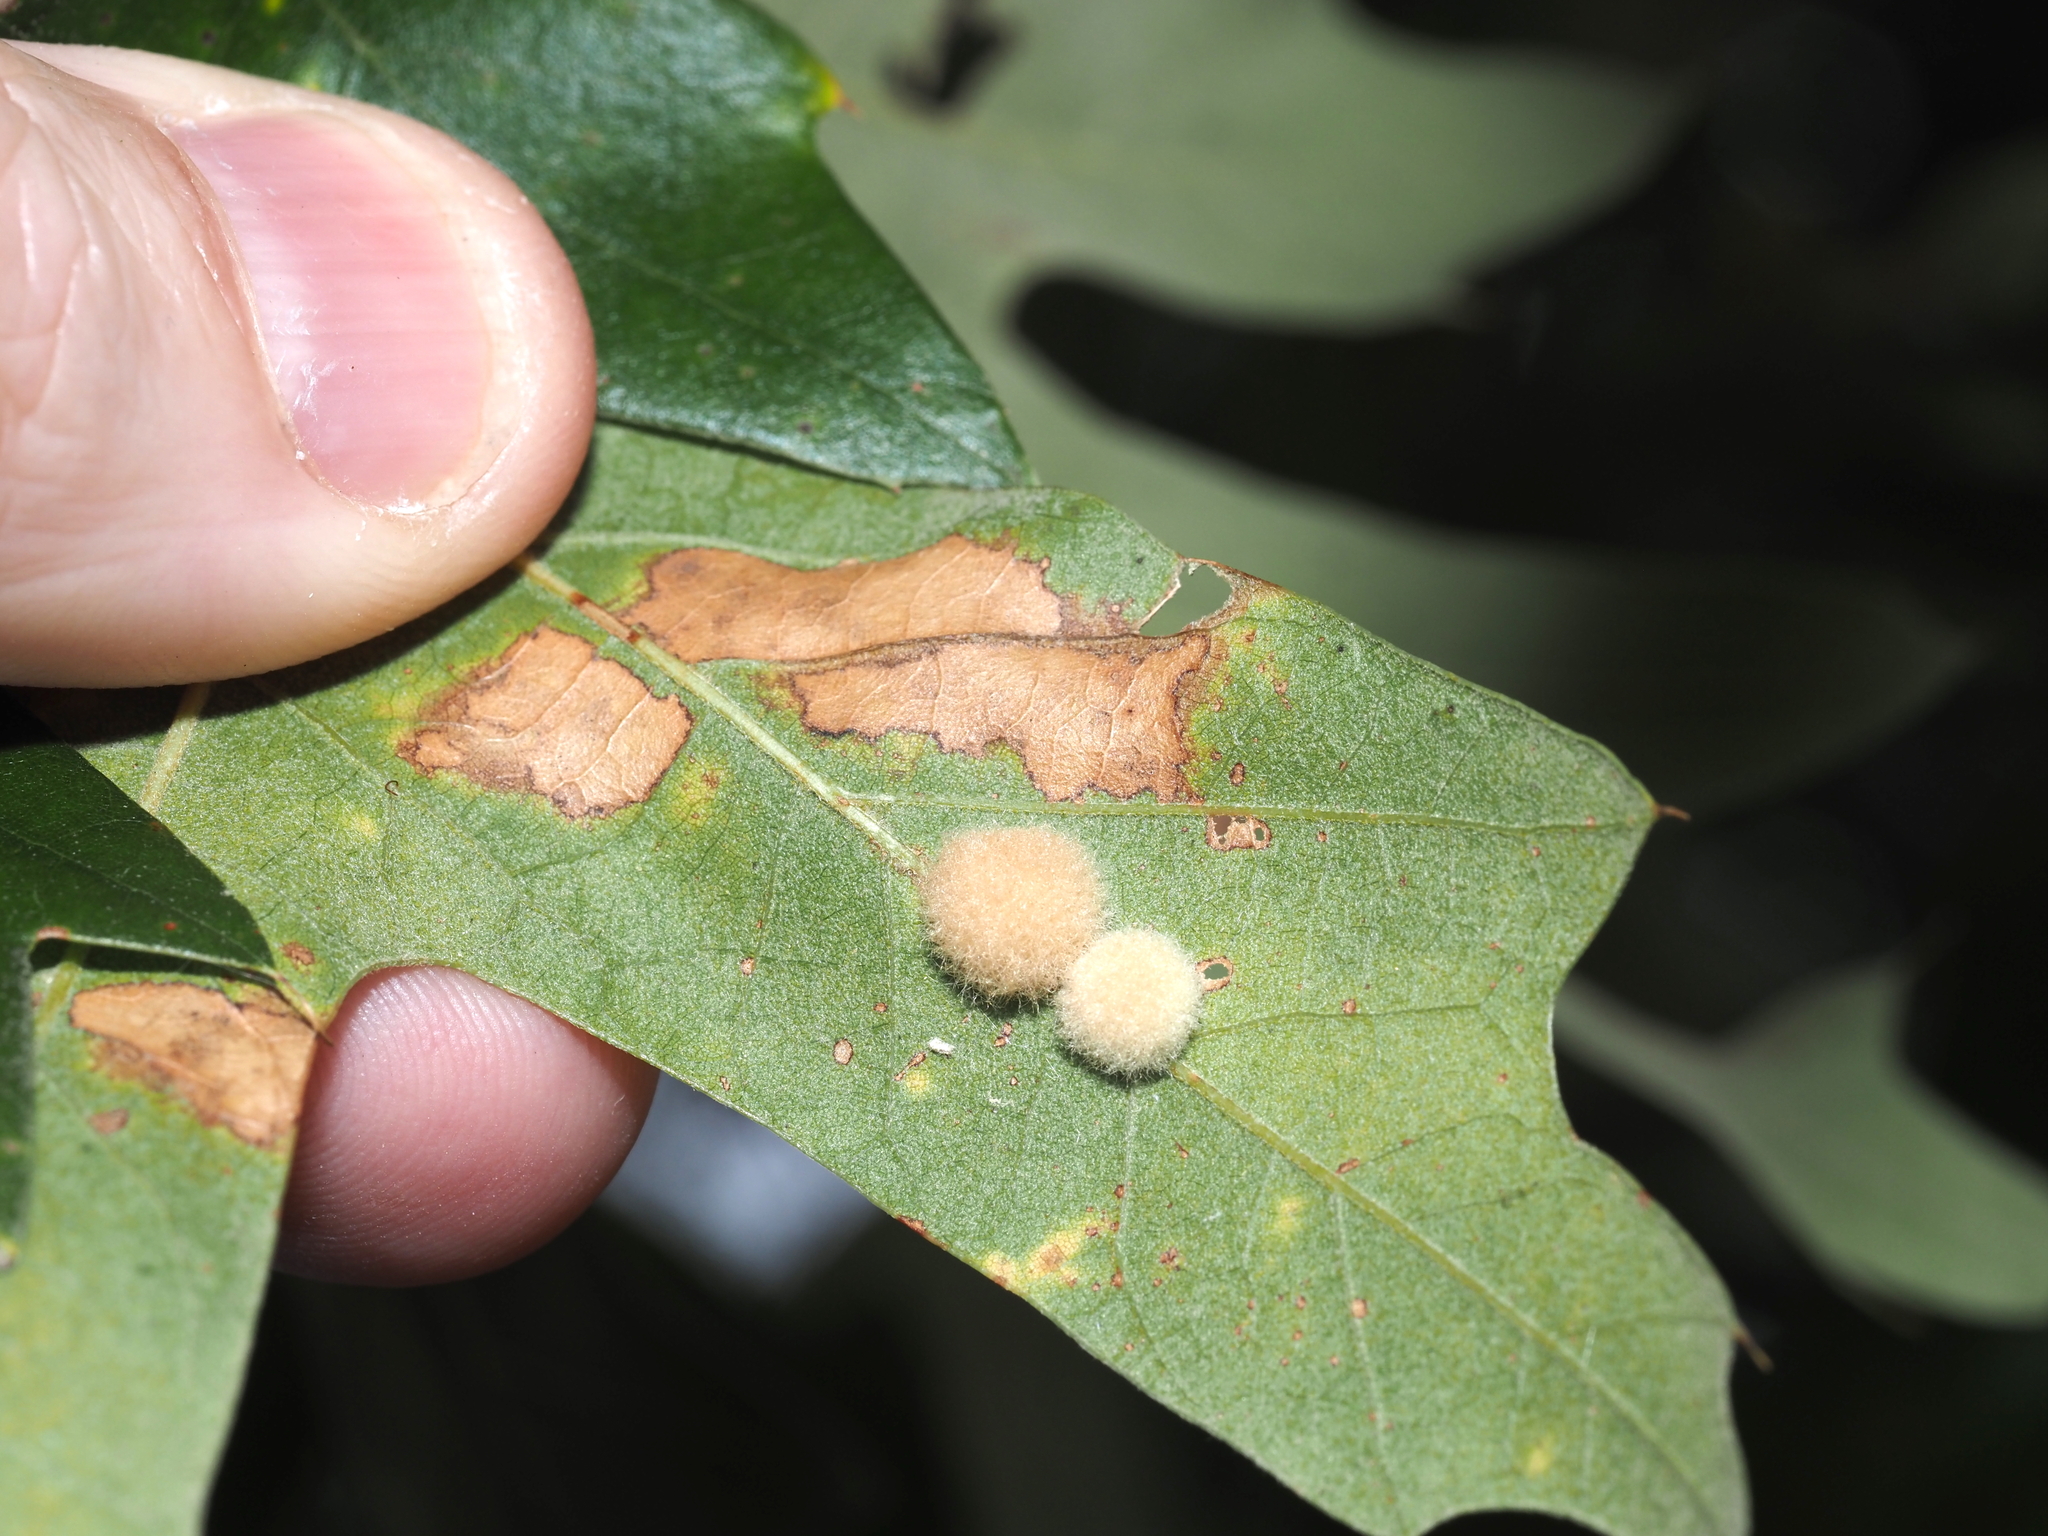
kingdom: Animalia
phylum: Arthropoda
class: Insecta
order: Hymenoptera
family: Cynipidae
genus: Callirhytis
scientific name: Callirhytis
